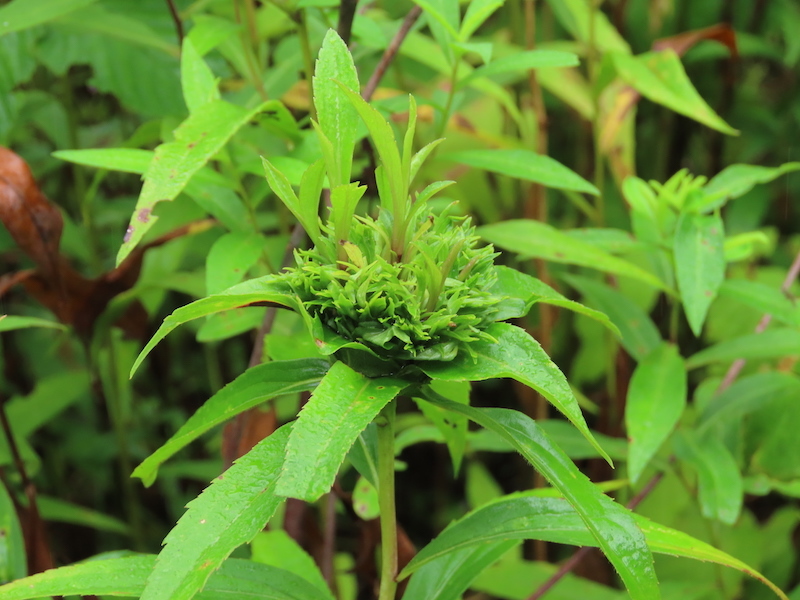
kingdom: Animalia
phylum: Arthropoda
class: Insecta
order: Diptera
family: Cecidomyiidae
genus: Rhopalomyia
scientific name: Rhopalomyia capitata
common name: Giant goldenrod bunch gall midge
